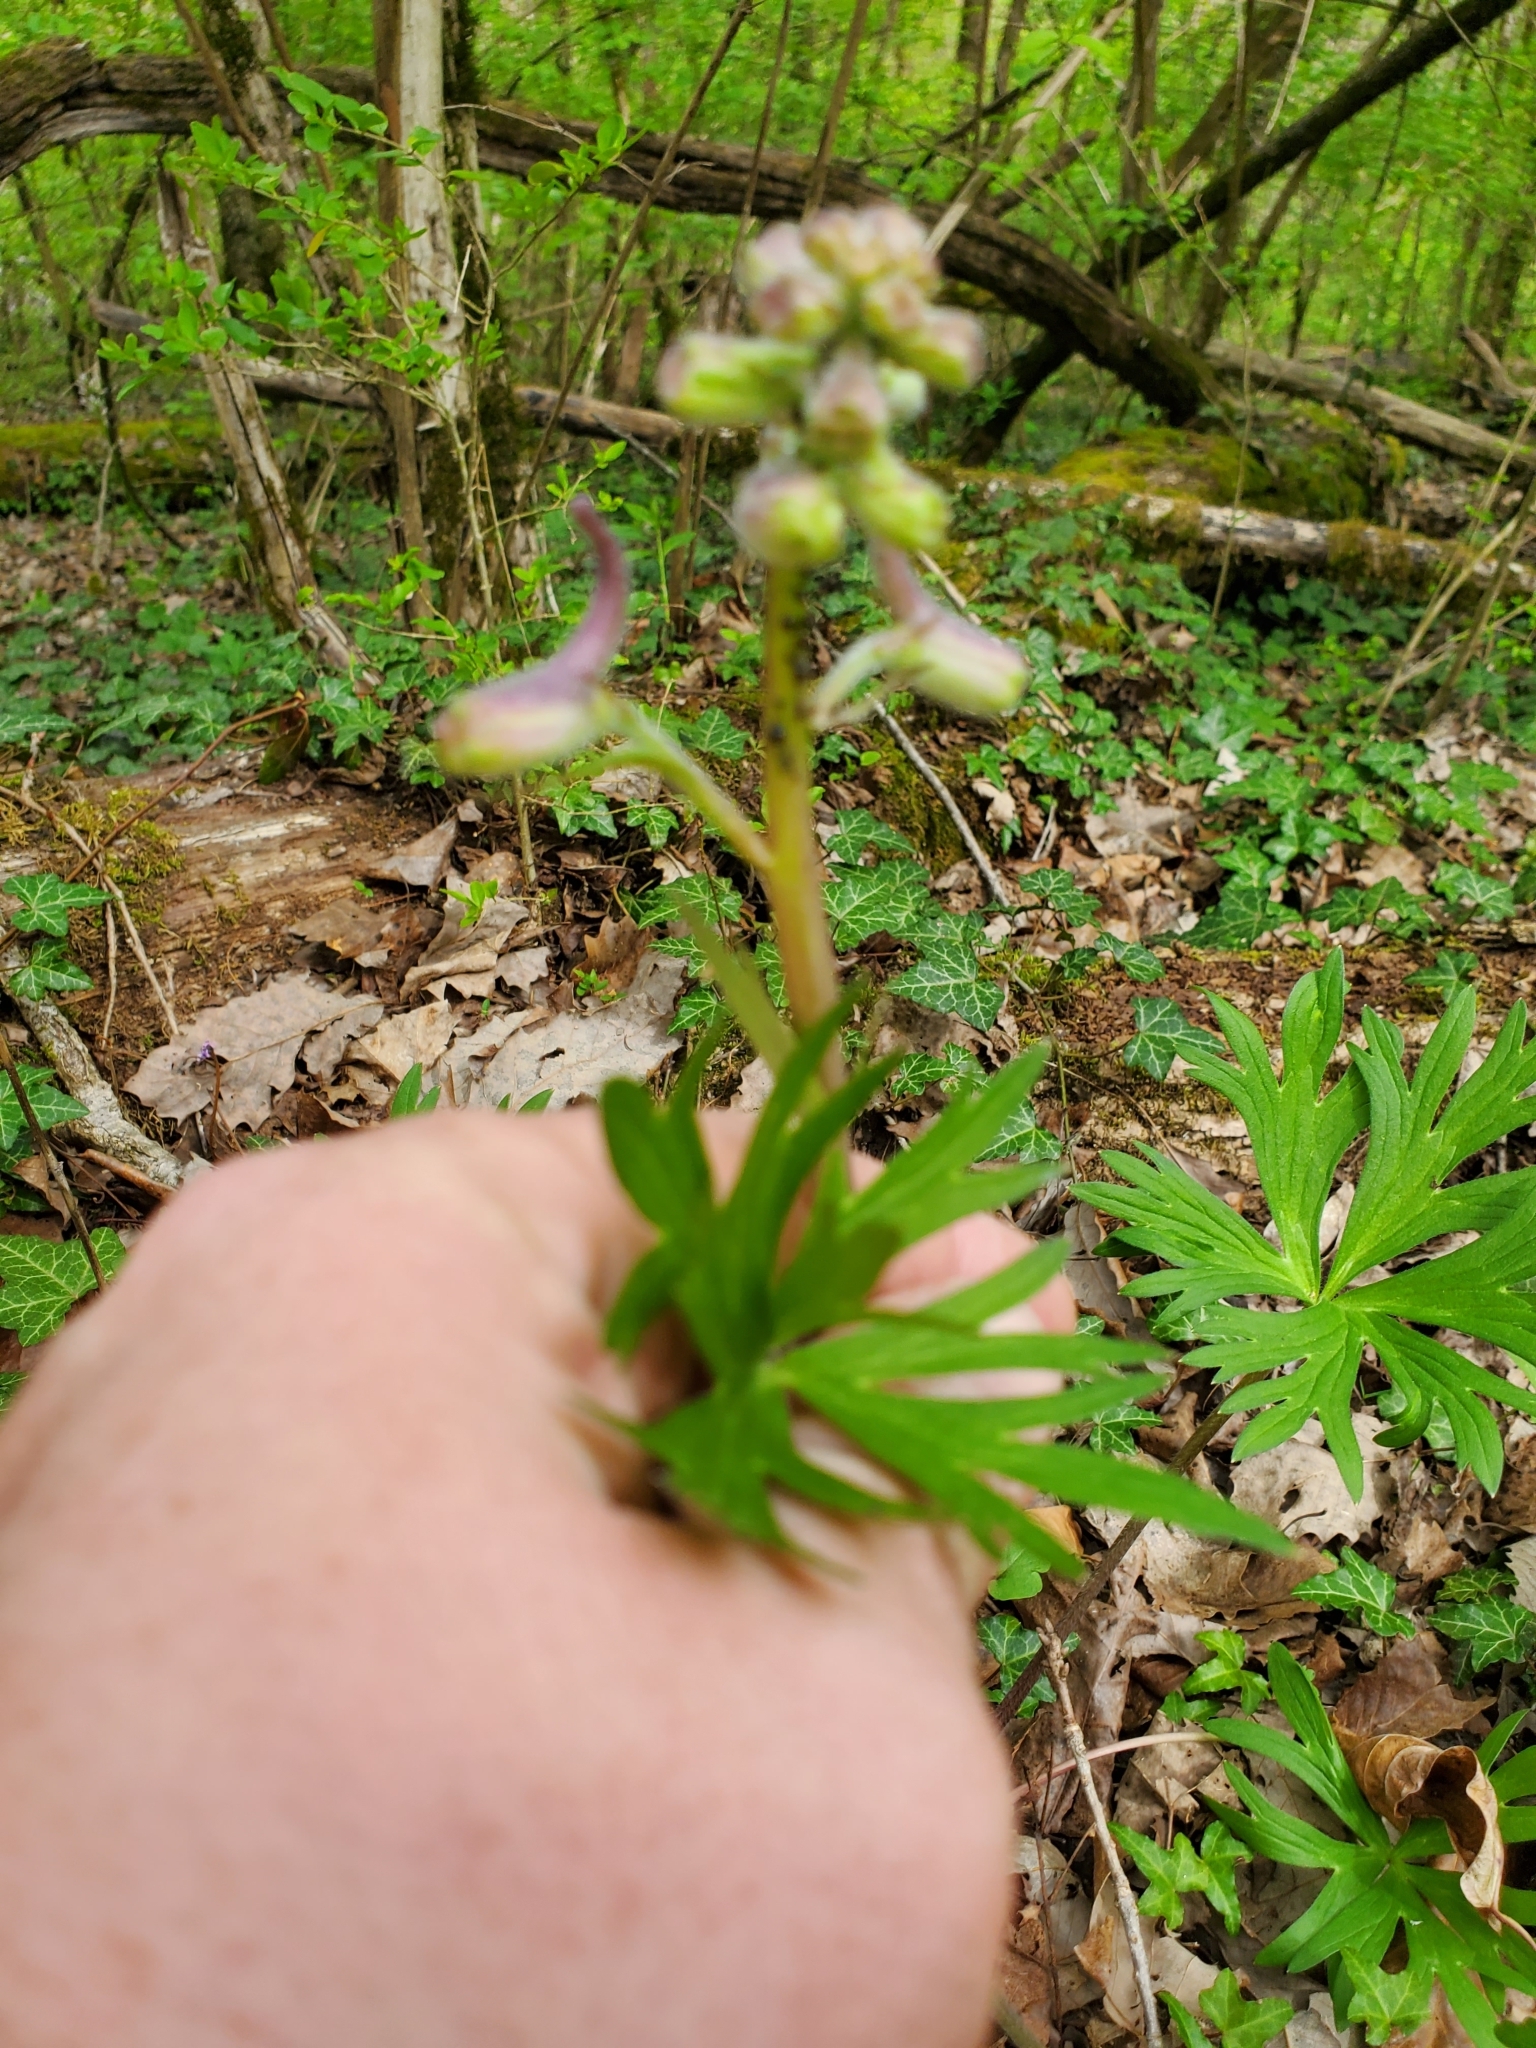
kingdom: Plantae
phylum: Tracheophyta
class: Magnoliopsida
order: Ranunculales
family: Ranunculaceae
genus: Delphinium
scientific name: Delphinium tricorne
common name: Dwarf larkspur
